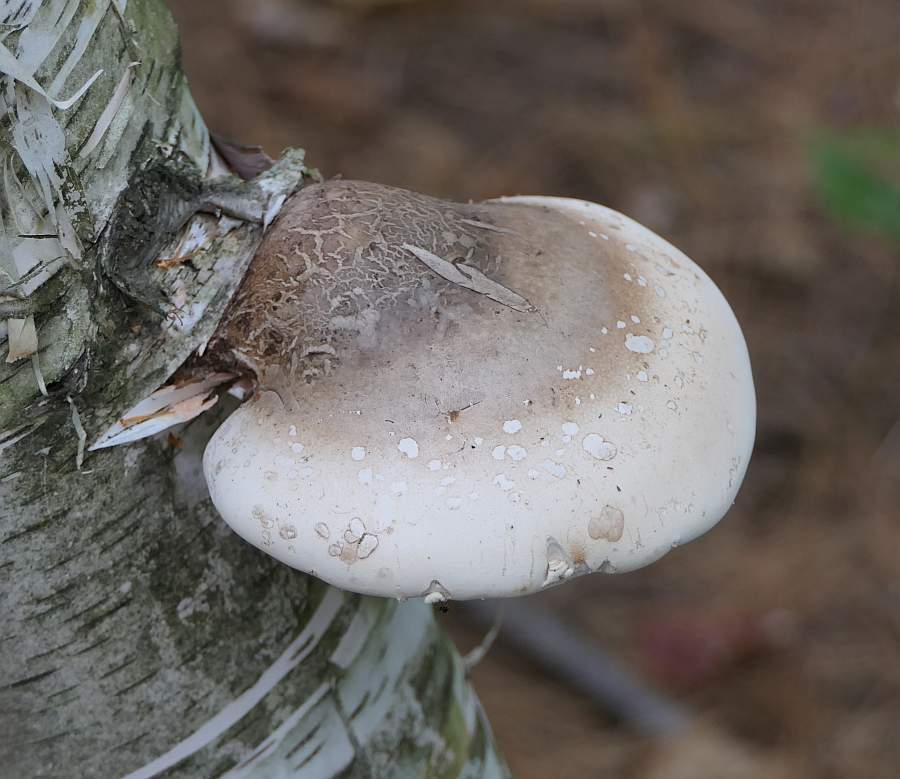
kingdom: Fungi
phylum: Basidiomycota
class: Agaricomycetes
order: Polyporales
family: Fomitopsidaceae
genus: Fomitopsis
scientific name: Fomitopsis betulina
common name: Birch polypore
